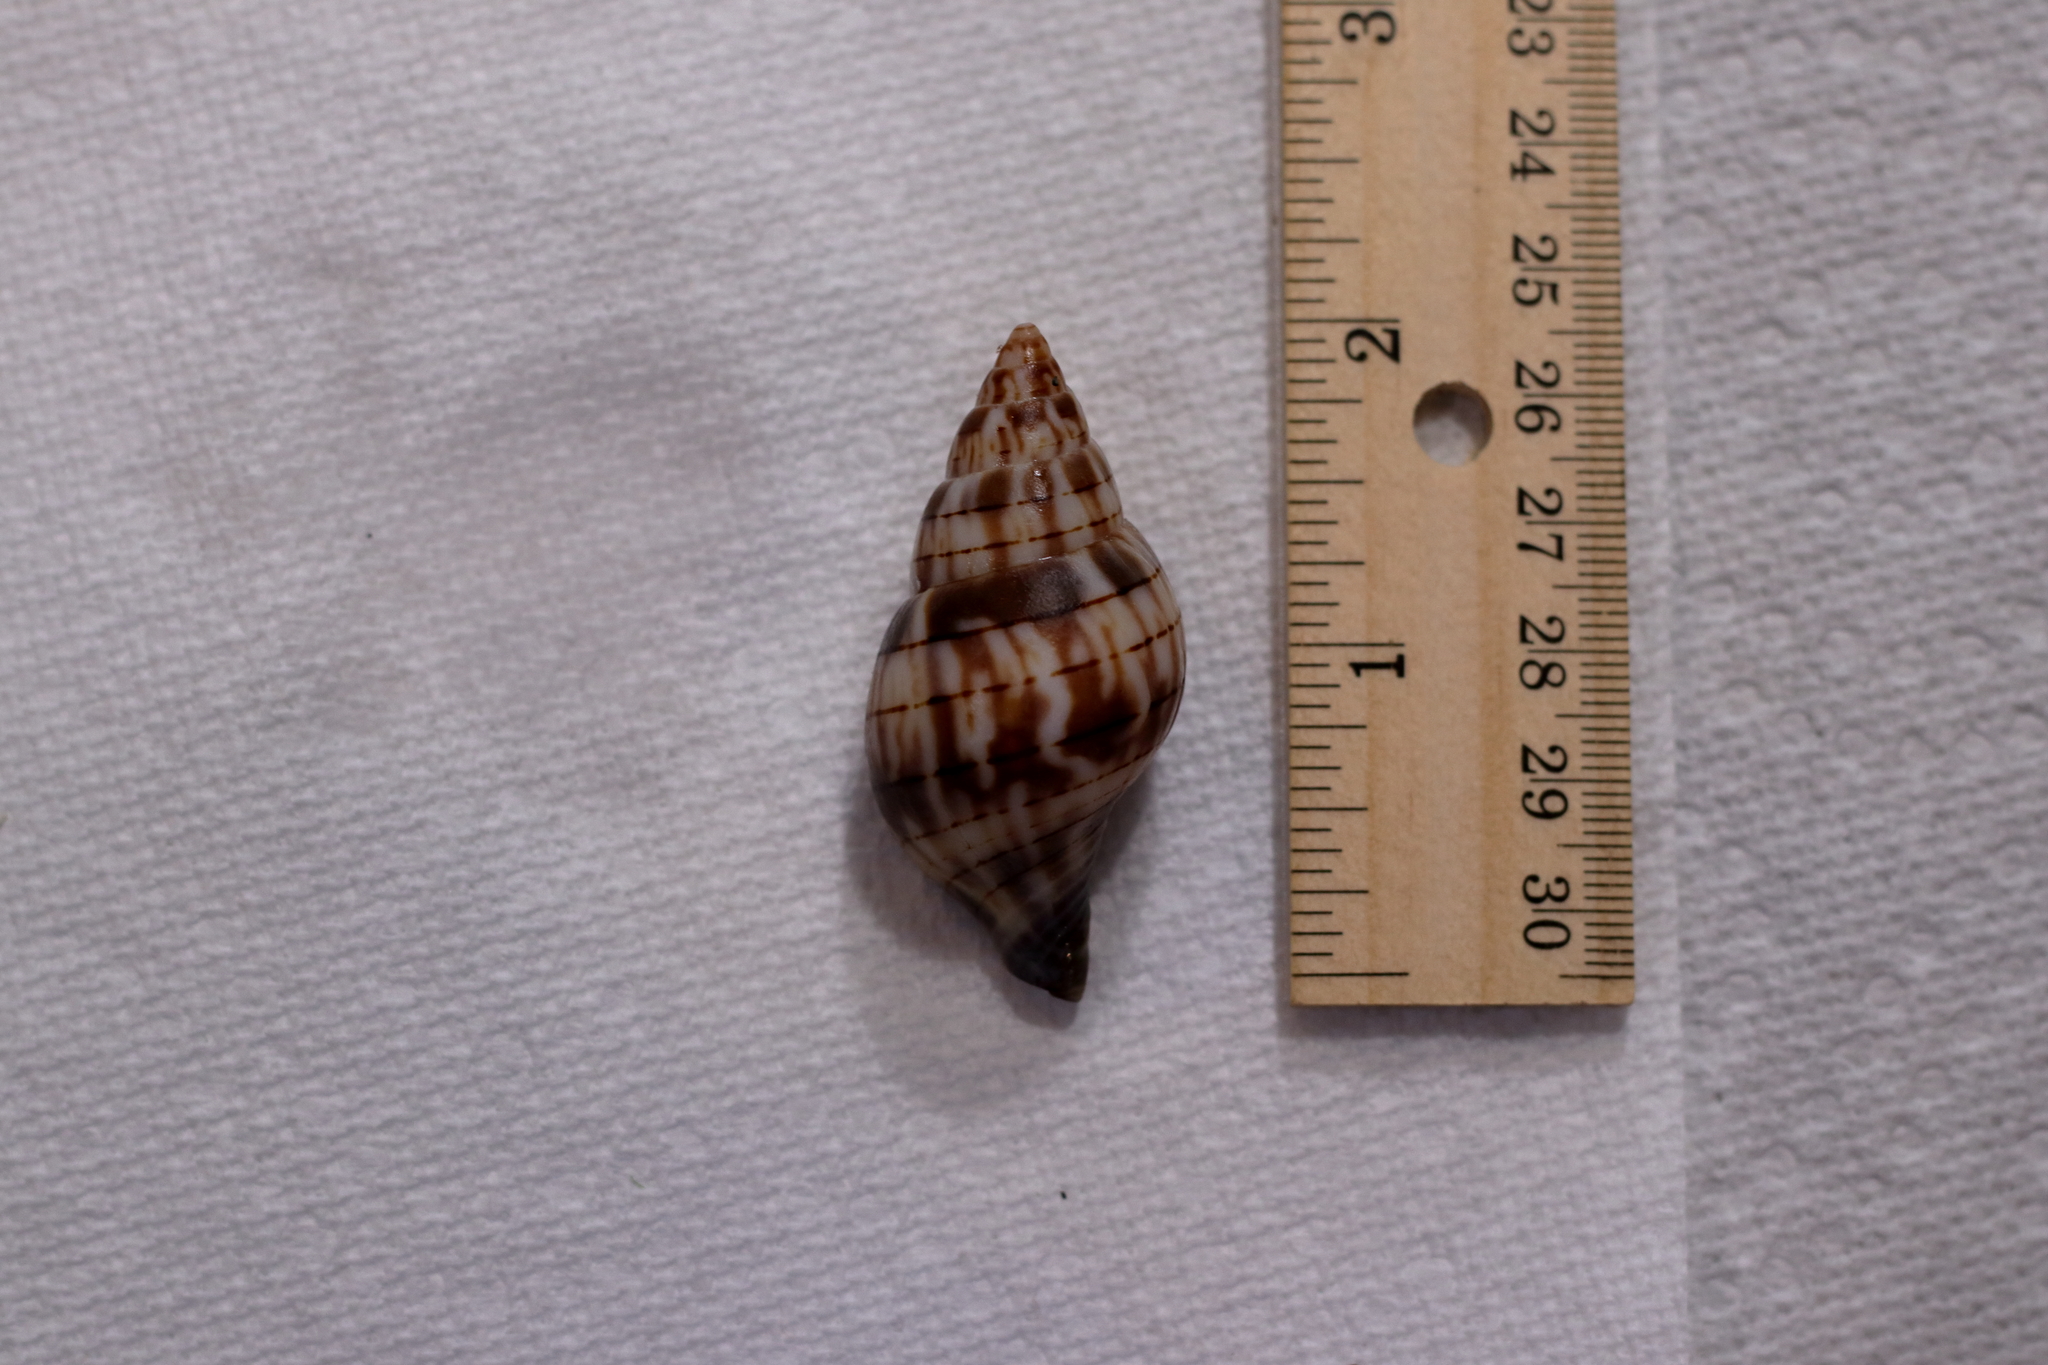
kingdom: Animalia
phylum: Mollusca
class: Gastropoda
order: Neogastropoda
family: Fasciolariidae
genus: Cinctura
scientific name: Cinctura hunteria
